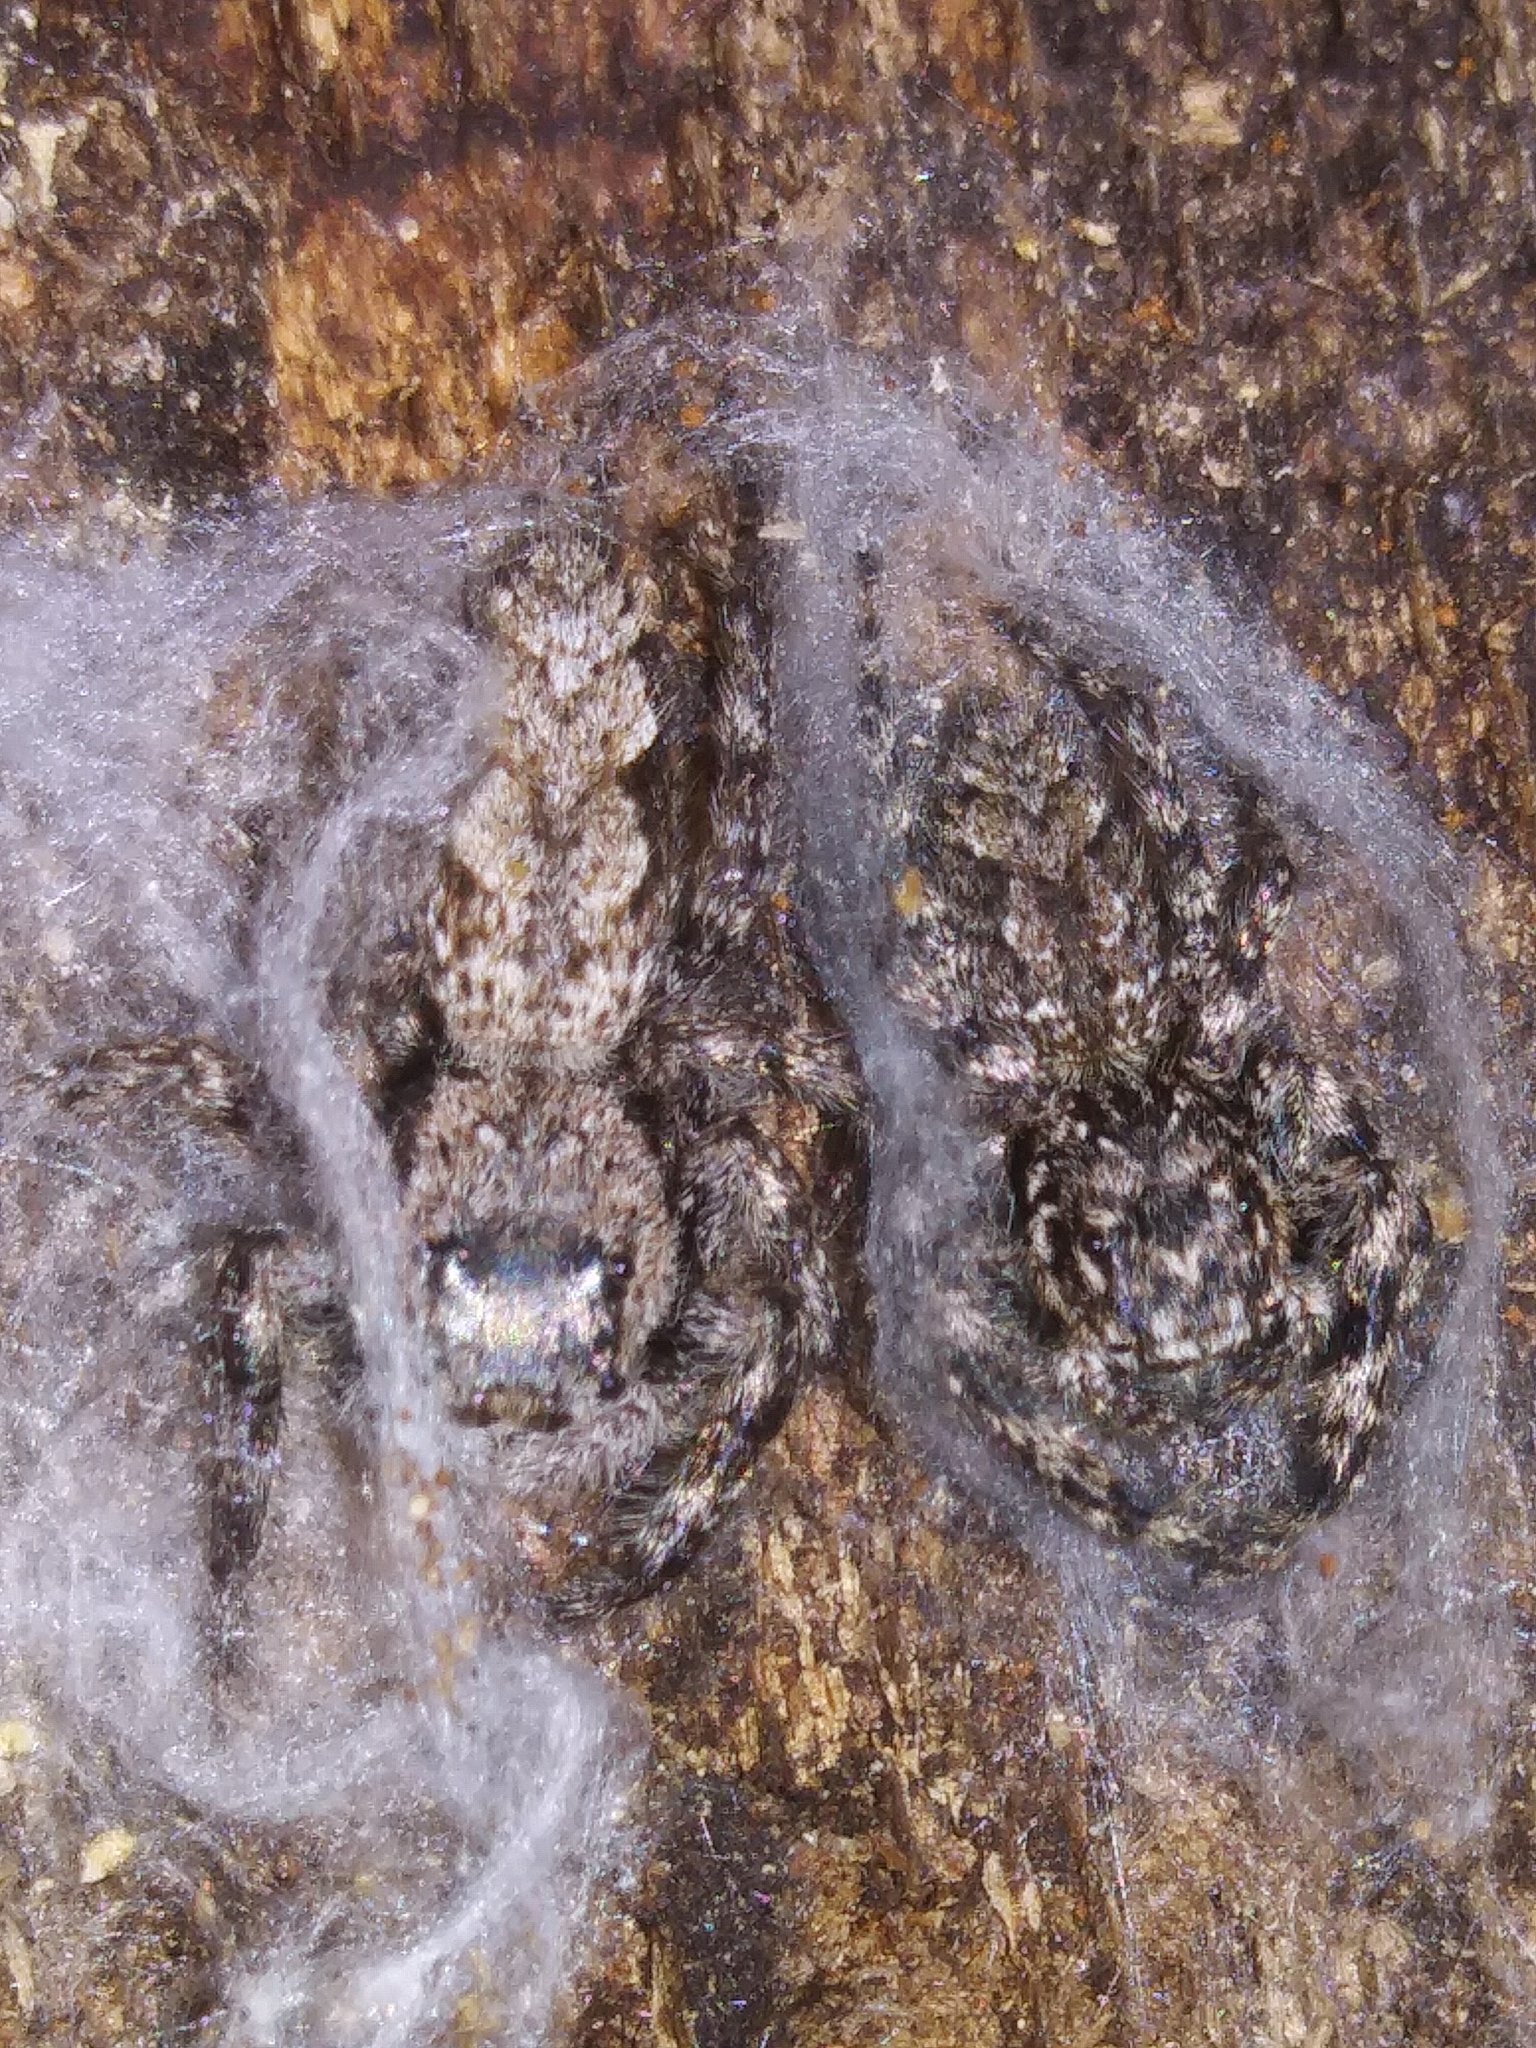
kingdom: Animalia
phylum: Arthropoda
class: Arachnida
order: Araneae
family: Salticidae
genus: Platycryptus
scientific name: Platycryptus undatus
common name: Tan jumping spider
